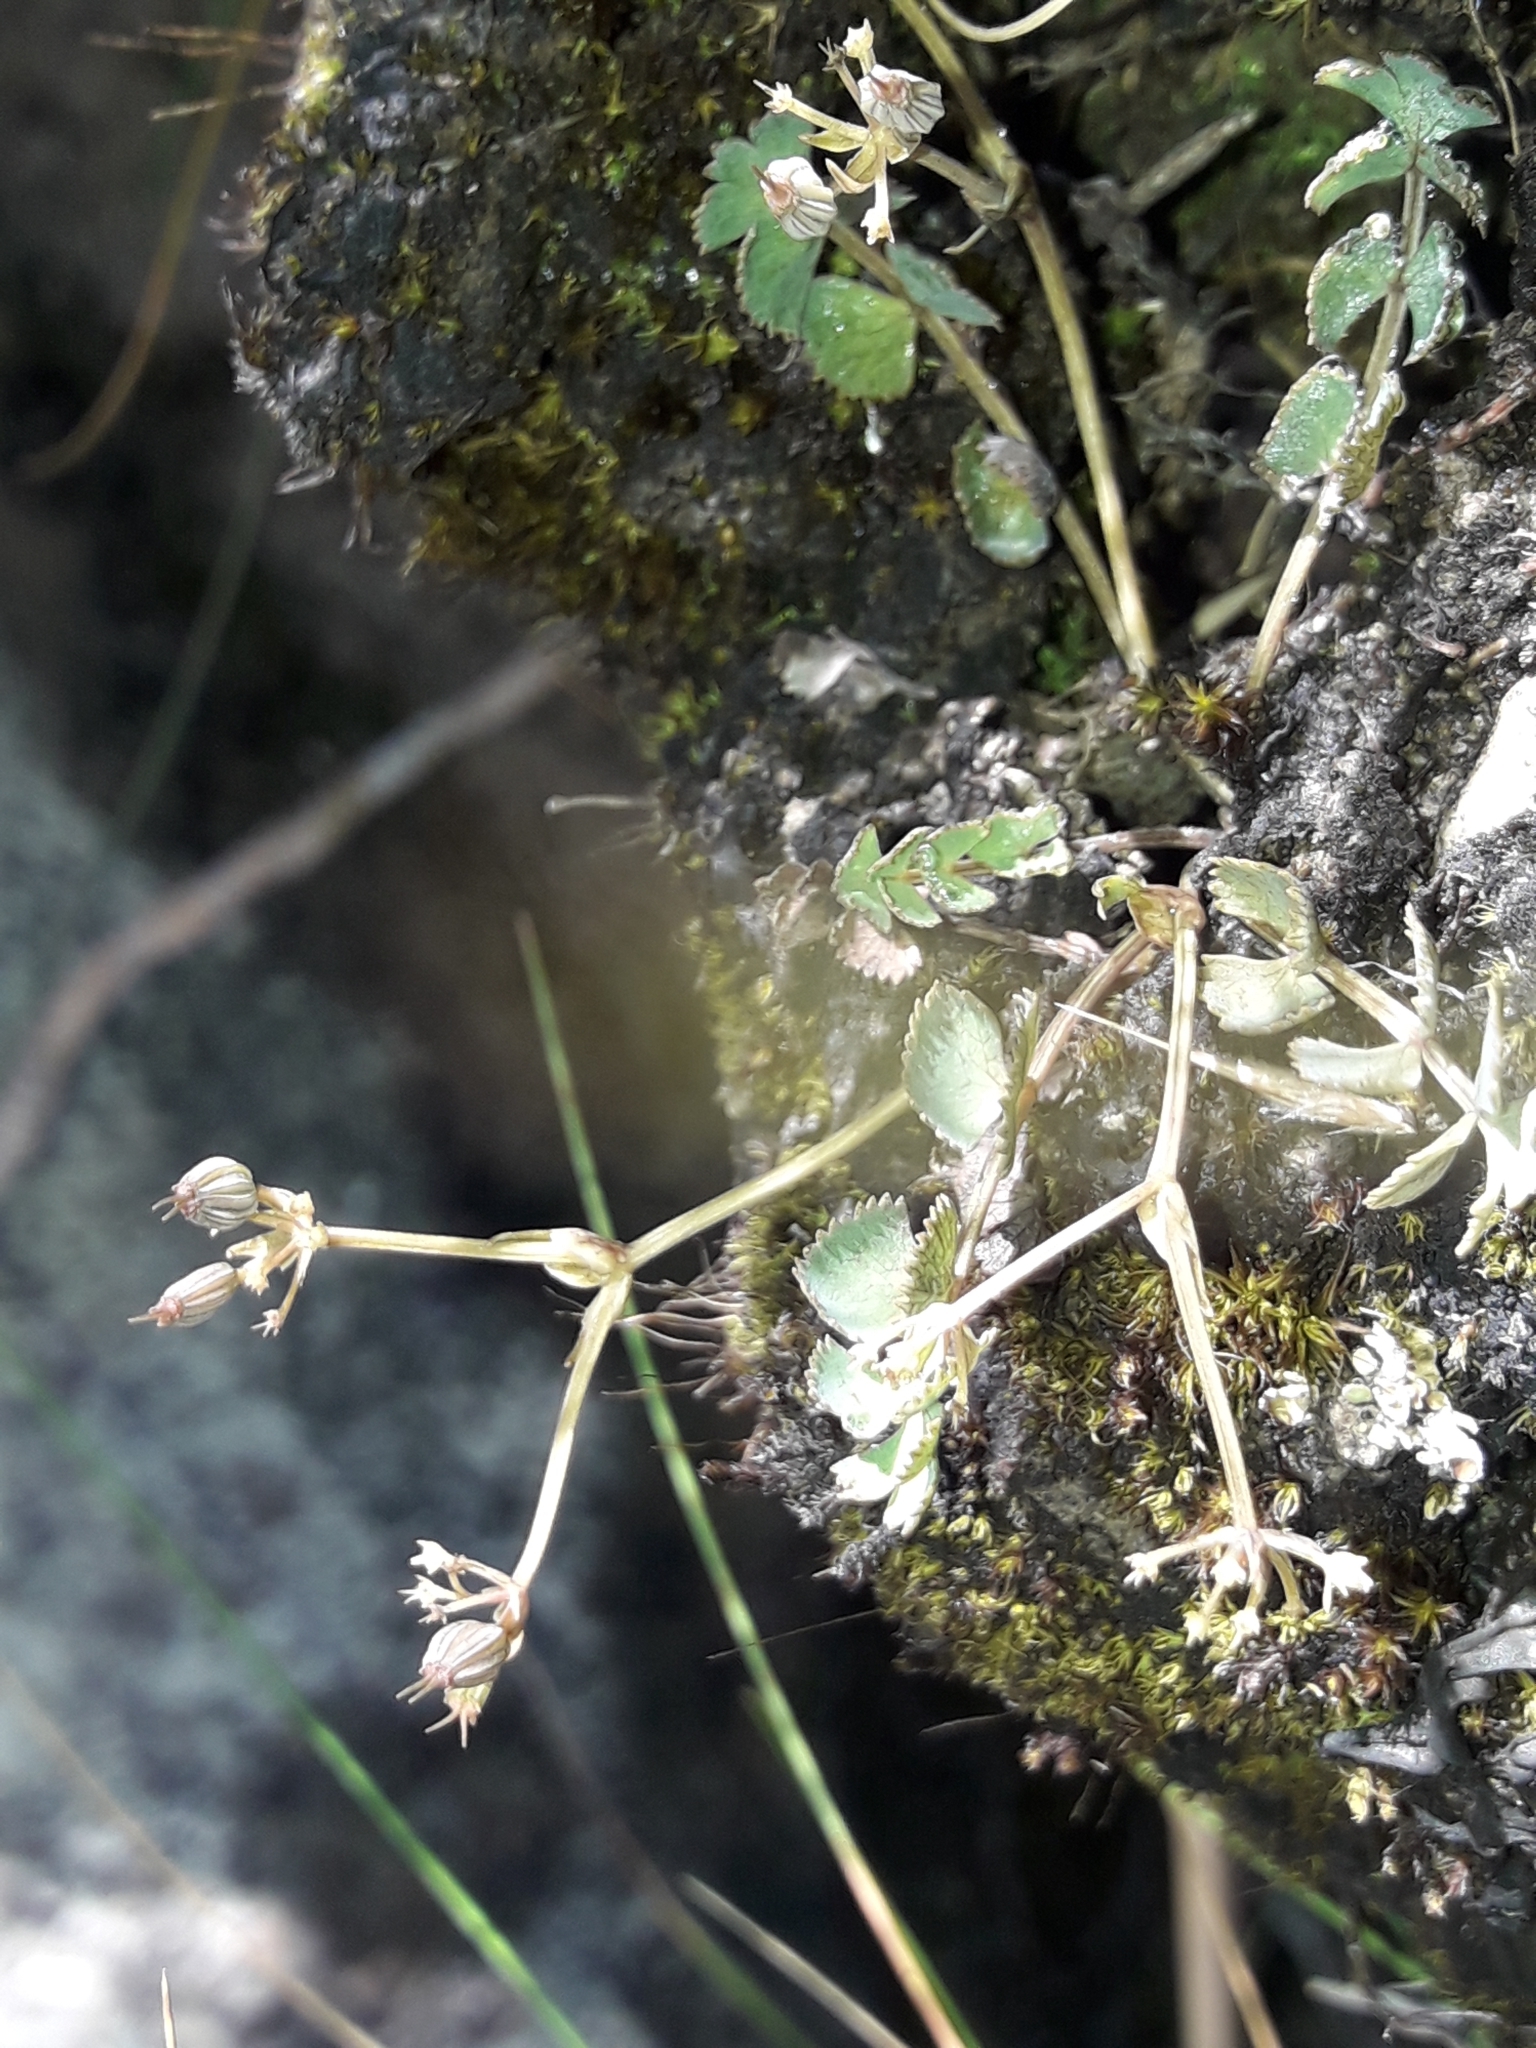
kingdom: Plantae
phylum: Tracheophyta
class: Magnoliopsida
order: Apiales
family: Apiaceae
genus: Gingidia
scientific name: Gingidia baxterae
